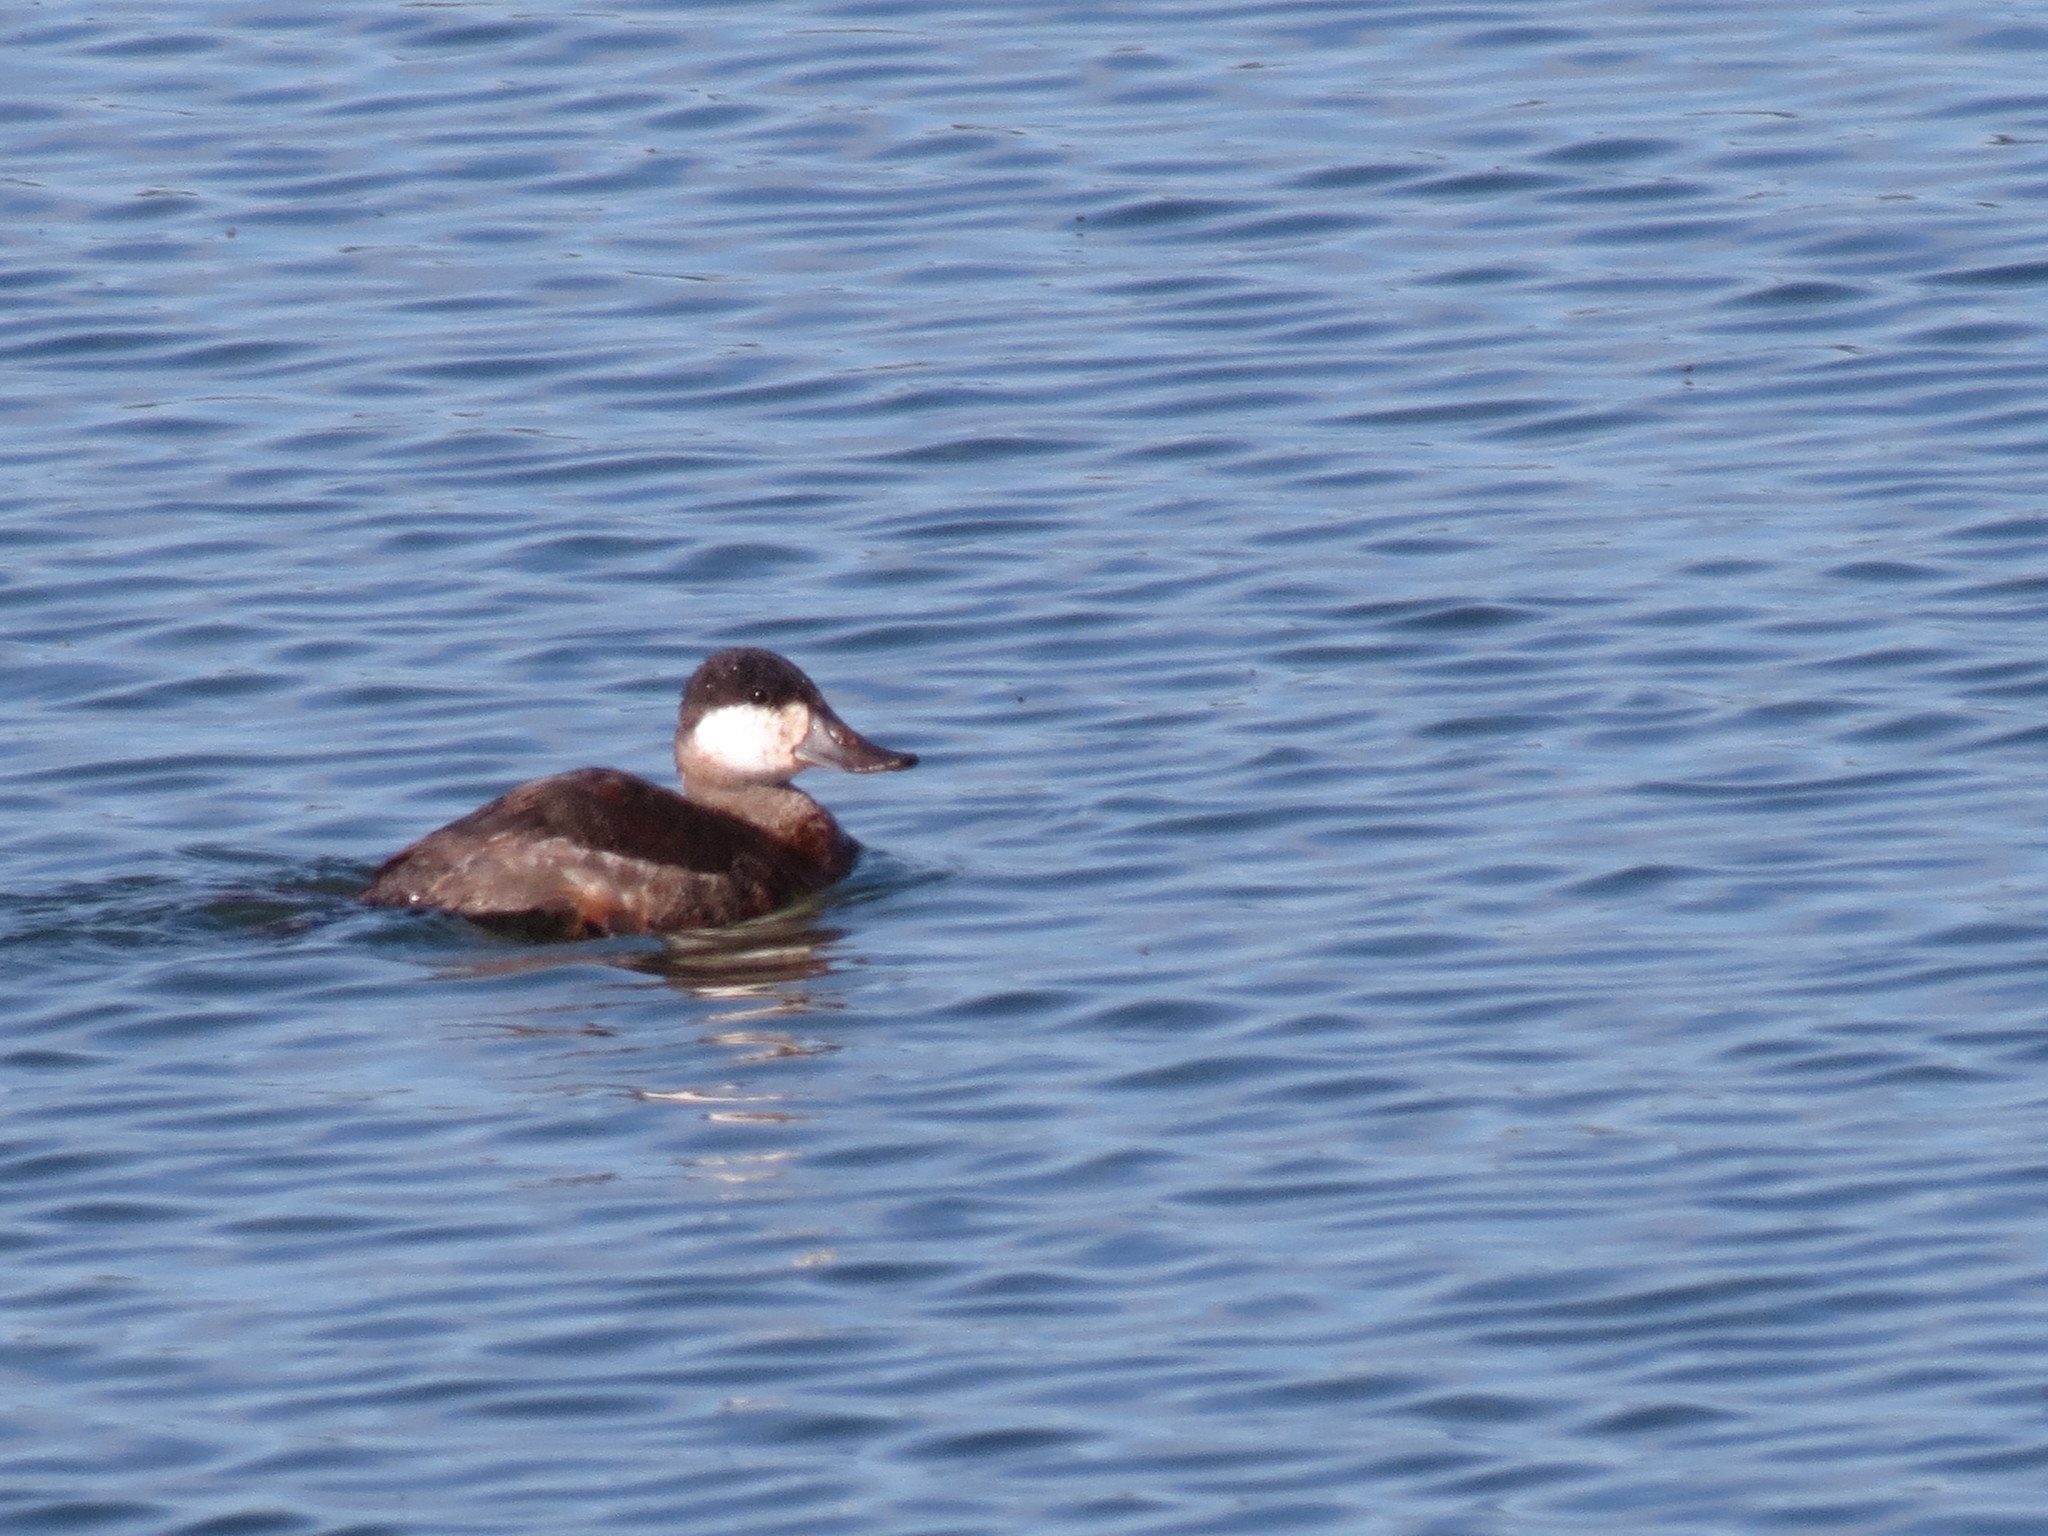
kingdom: Animalia
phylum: Chordata
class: Aves
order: Anseriformes
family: Anatidae
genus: Oxyura
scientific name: Oxyura jamaicensis
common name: Ruddy duck
